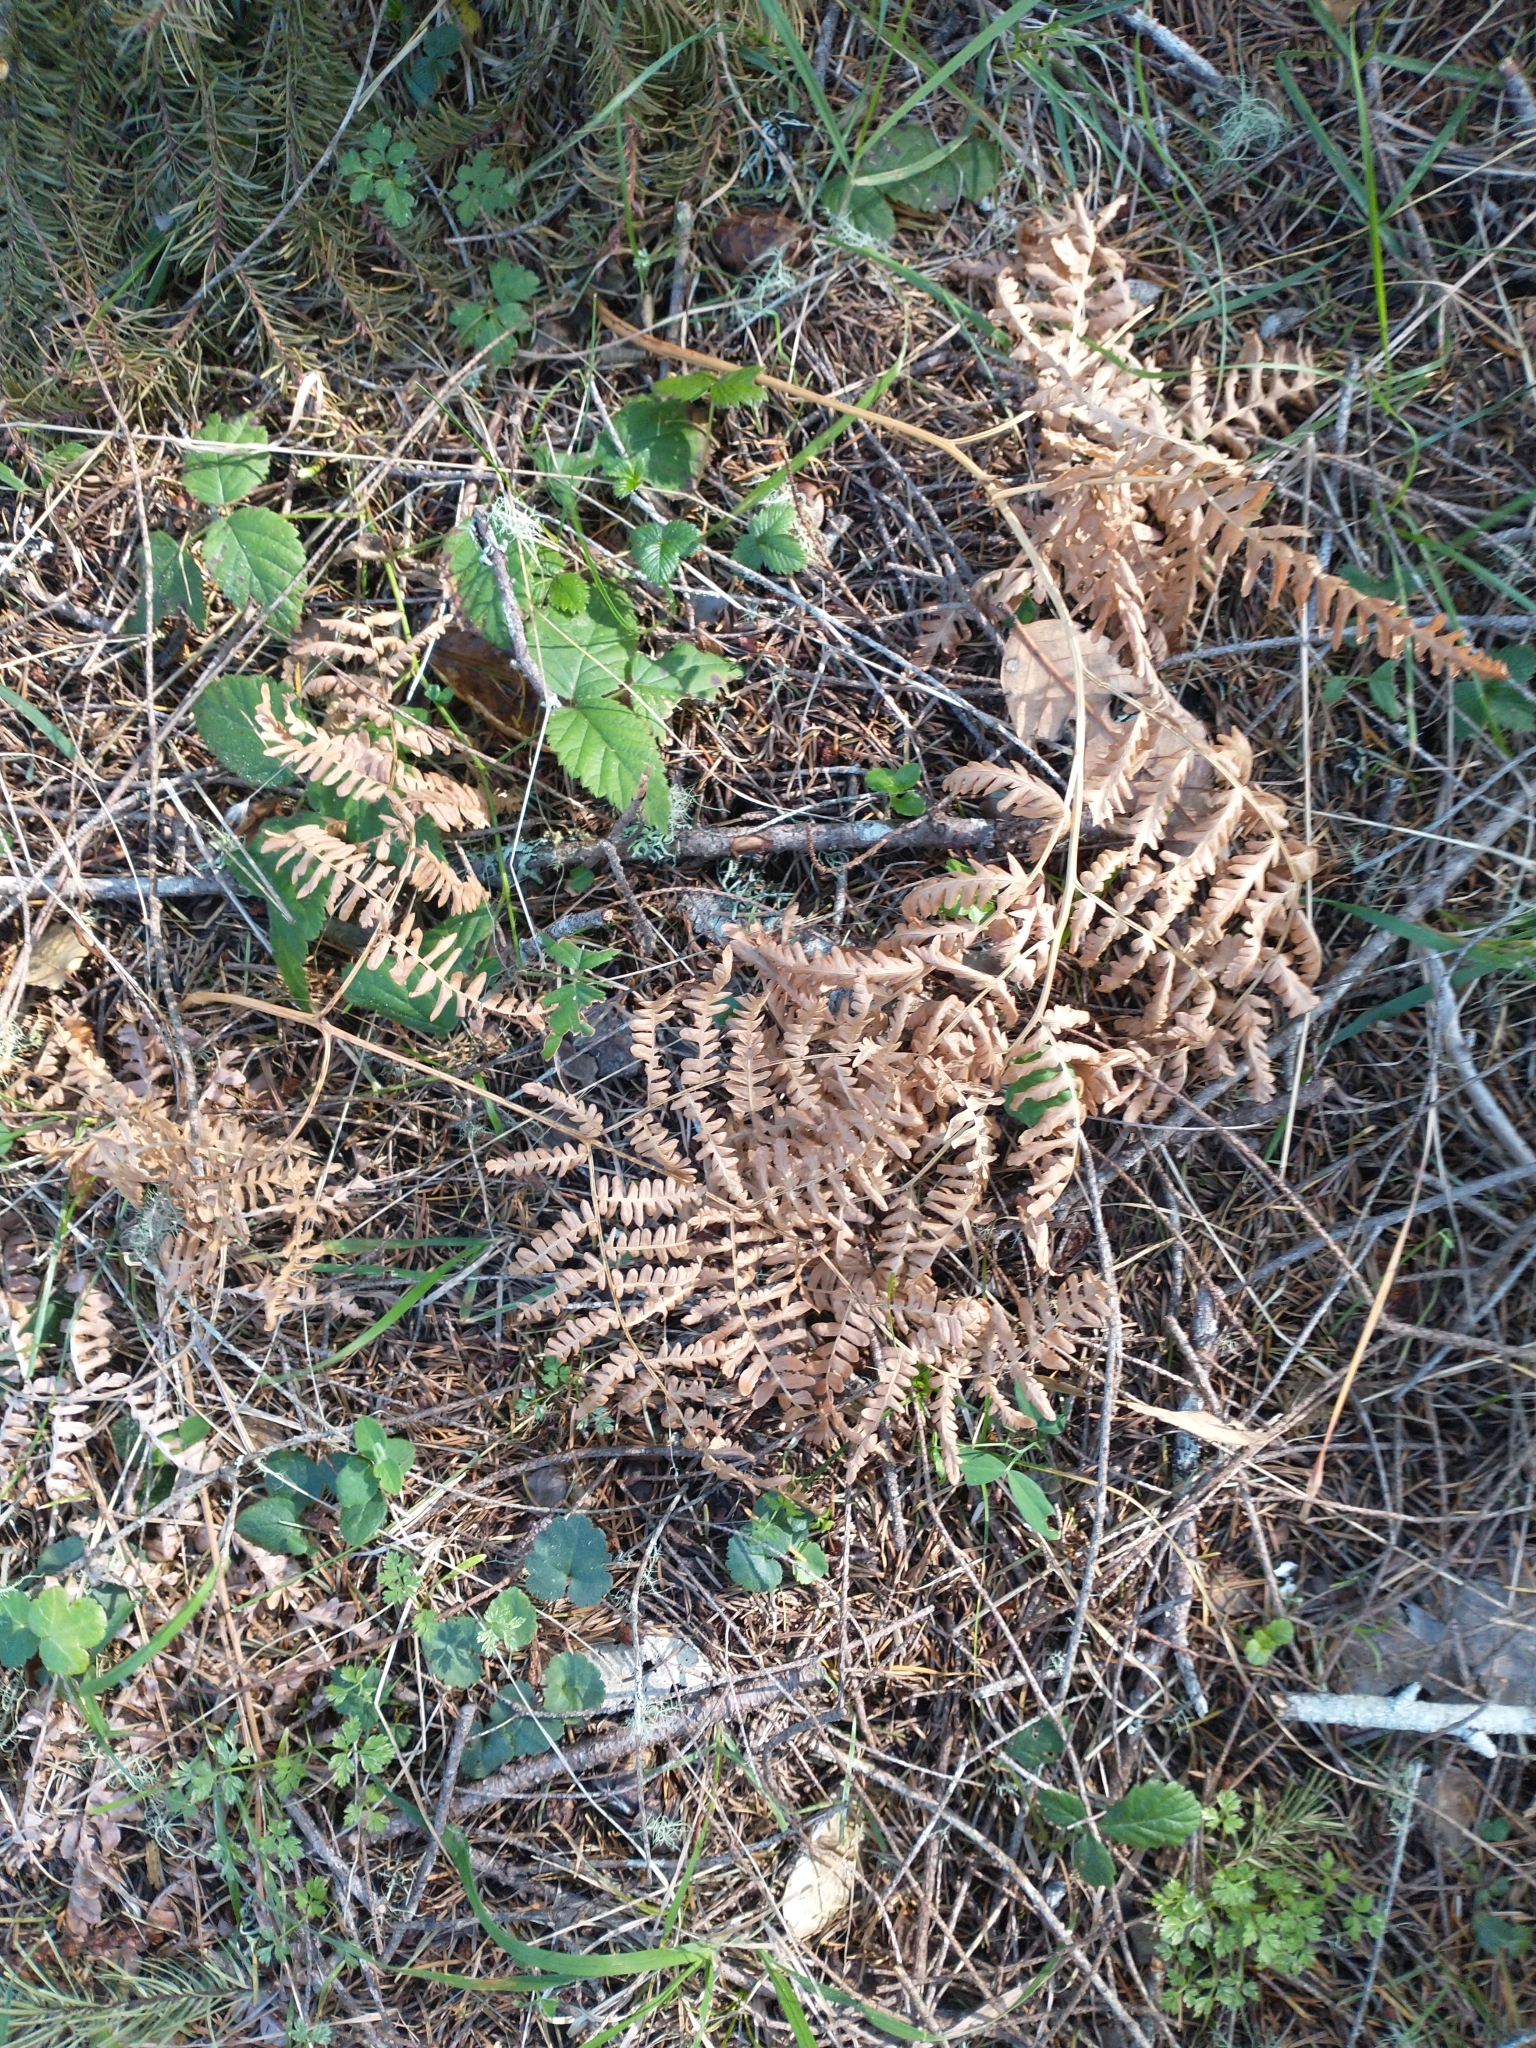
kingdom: Plantae
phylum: Tracheophyta
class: Polypodiopsida
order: Polypodiales
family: Dennstaedtiaceae
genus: Pteridium
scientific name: Pteridium aquilinum
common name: Bracken
